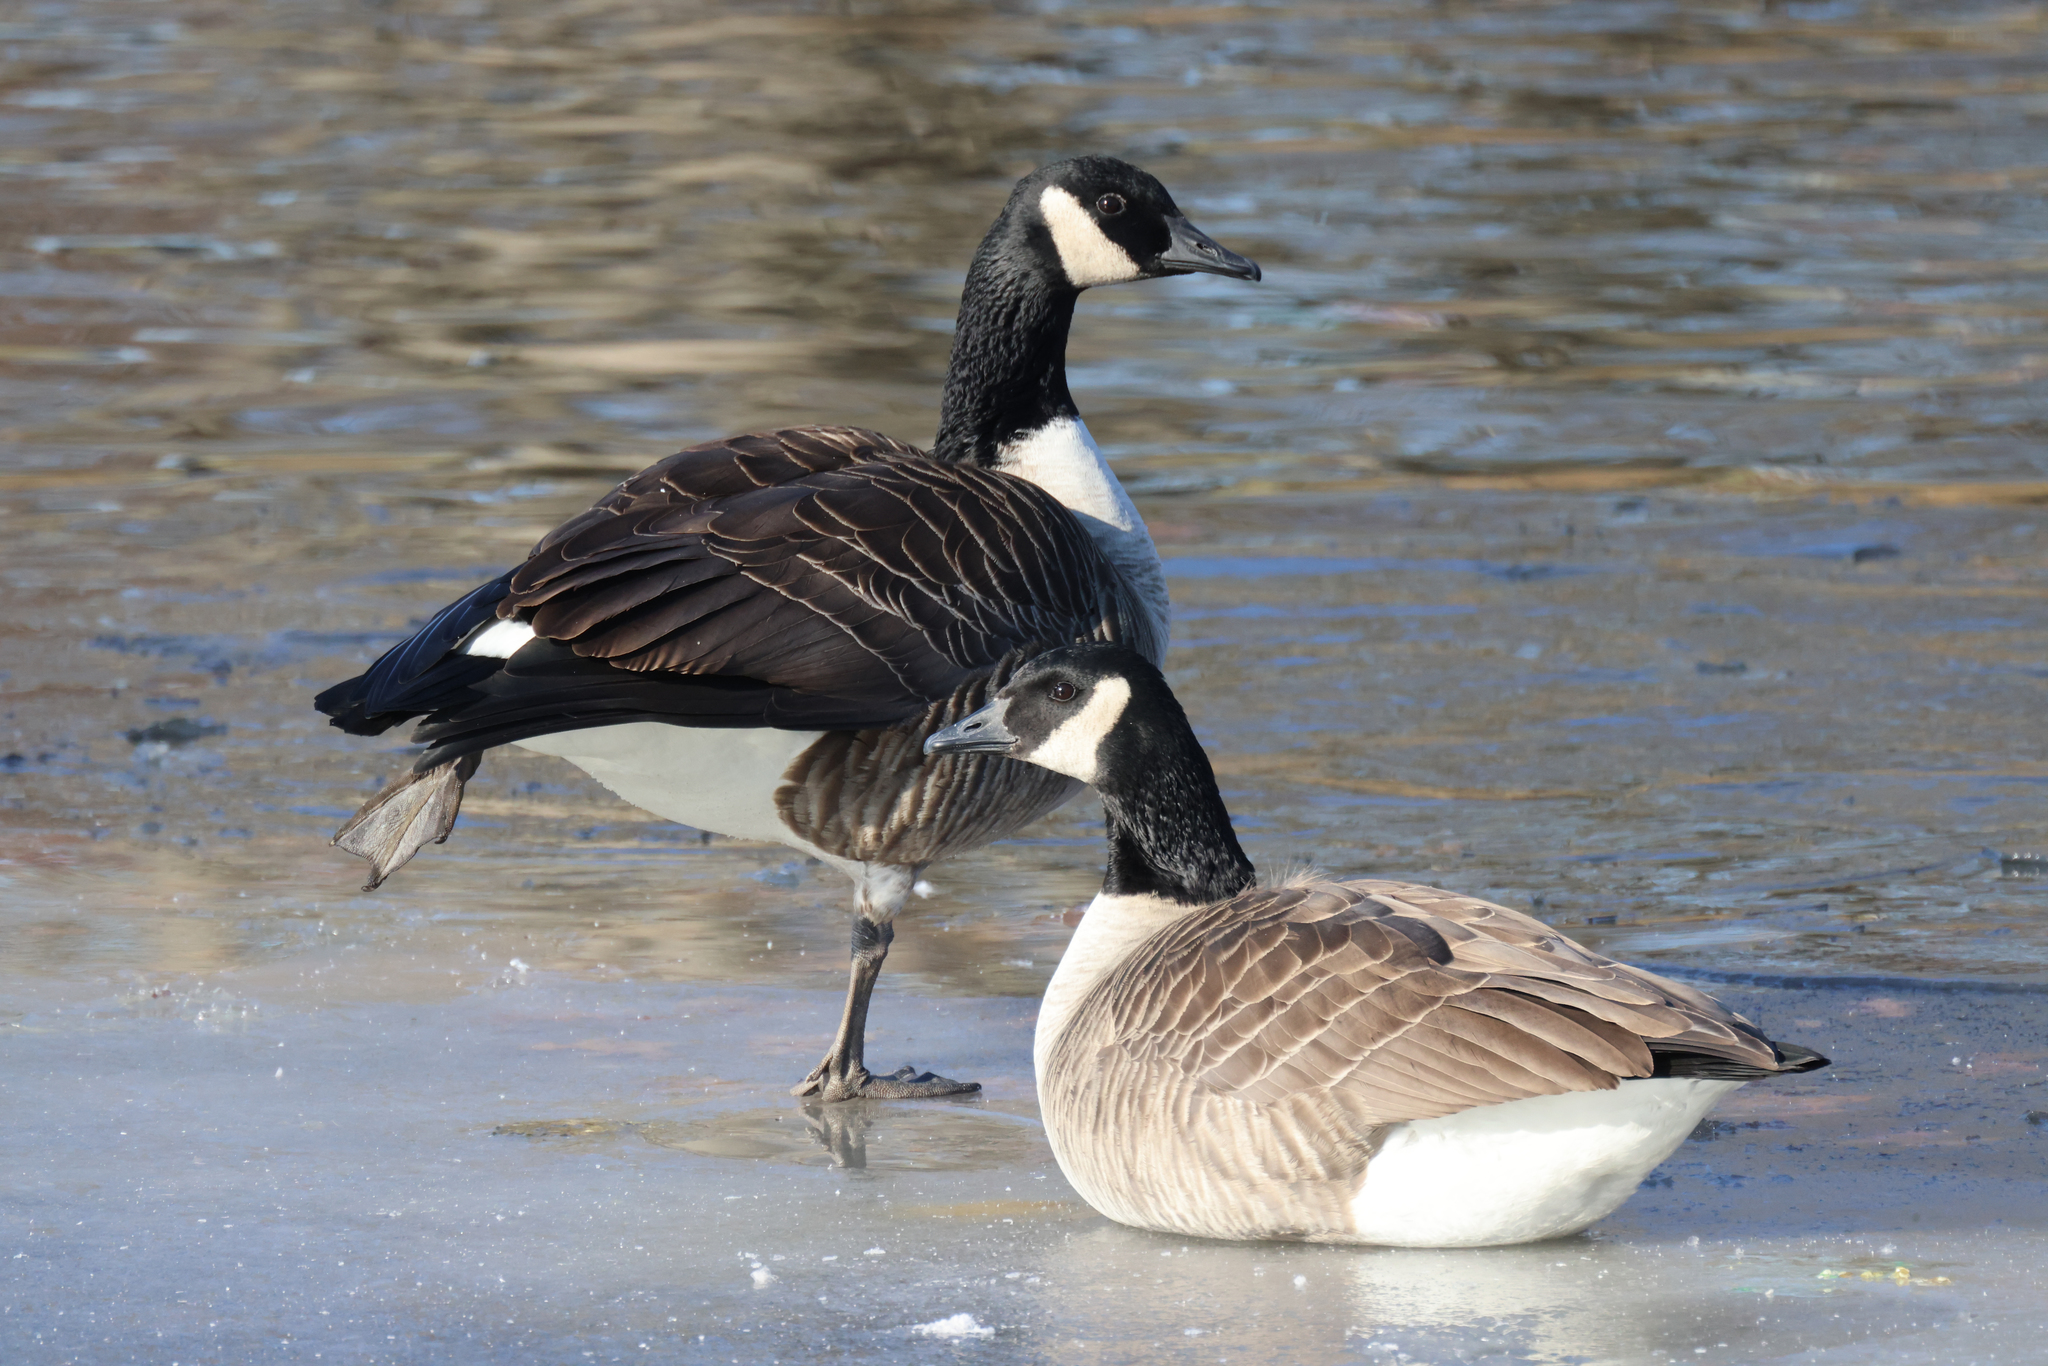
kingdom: Animalia
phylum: Chordata
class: Aves
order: Anseriformes
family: Anatidae
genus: Branta
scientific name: Branta canadensis
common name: Canada goose
